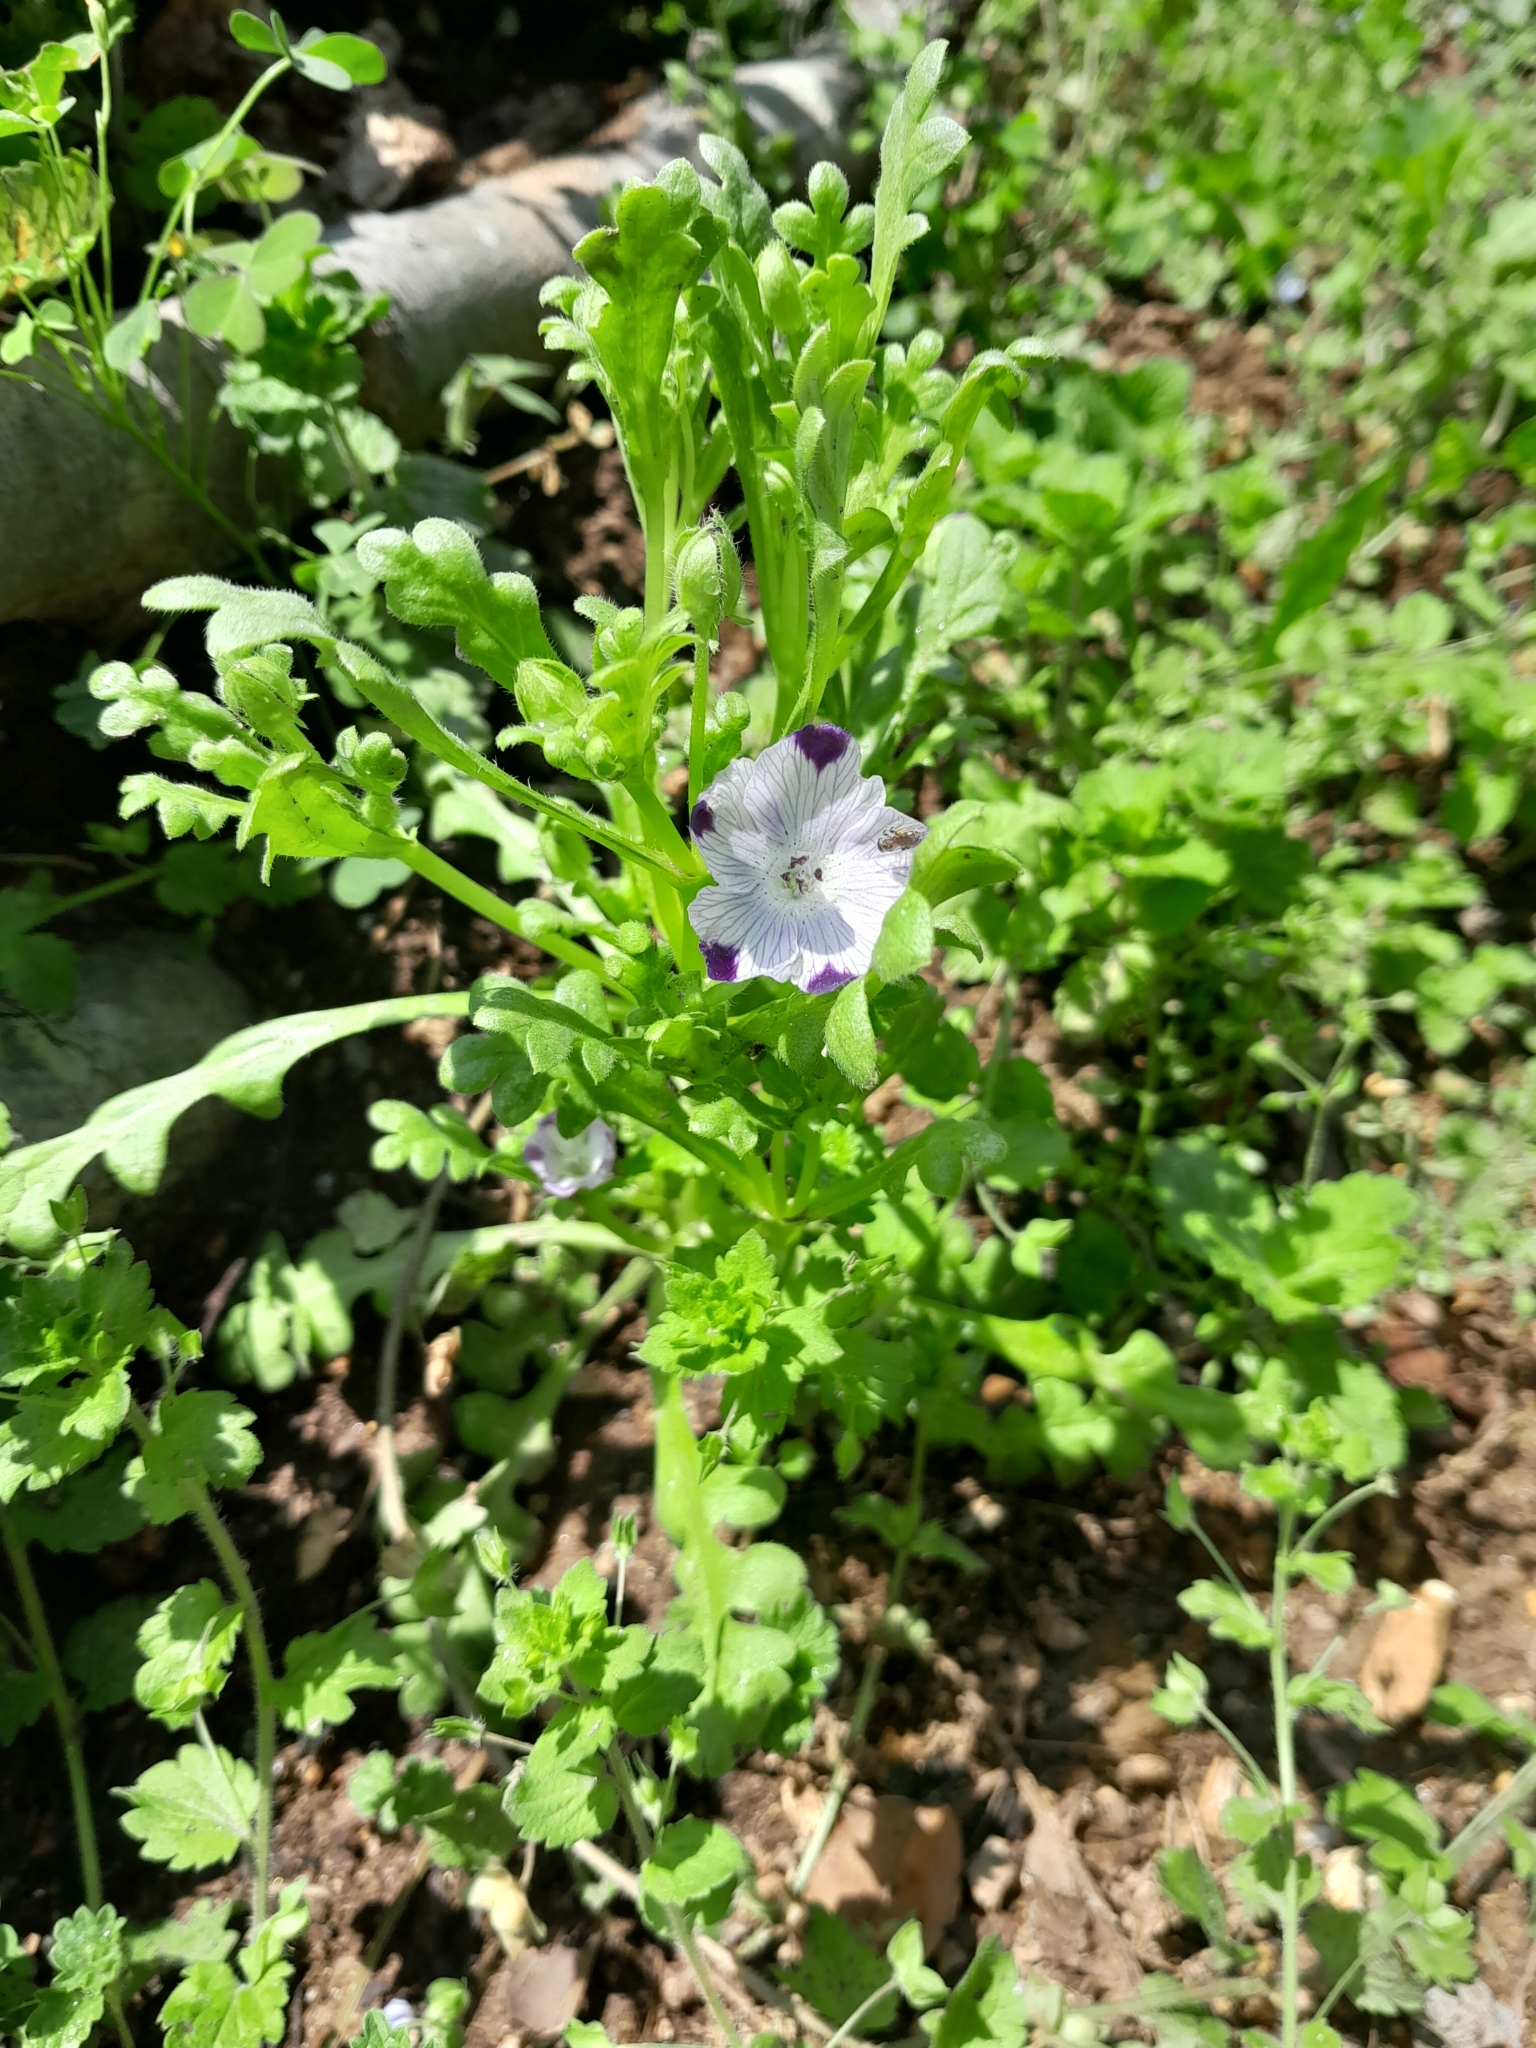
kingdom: Plantae
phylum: Tracheophyta
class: Magnoliopsida
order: Boraginales
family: Hydrophyllaceae
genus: Nemophila
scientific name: Nemophila maculata
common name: Fivespot
